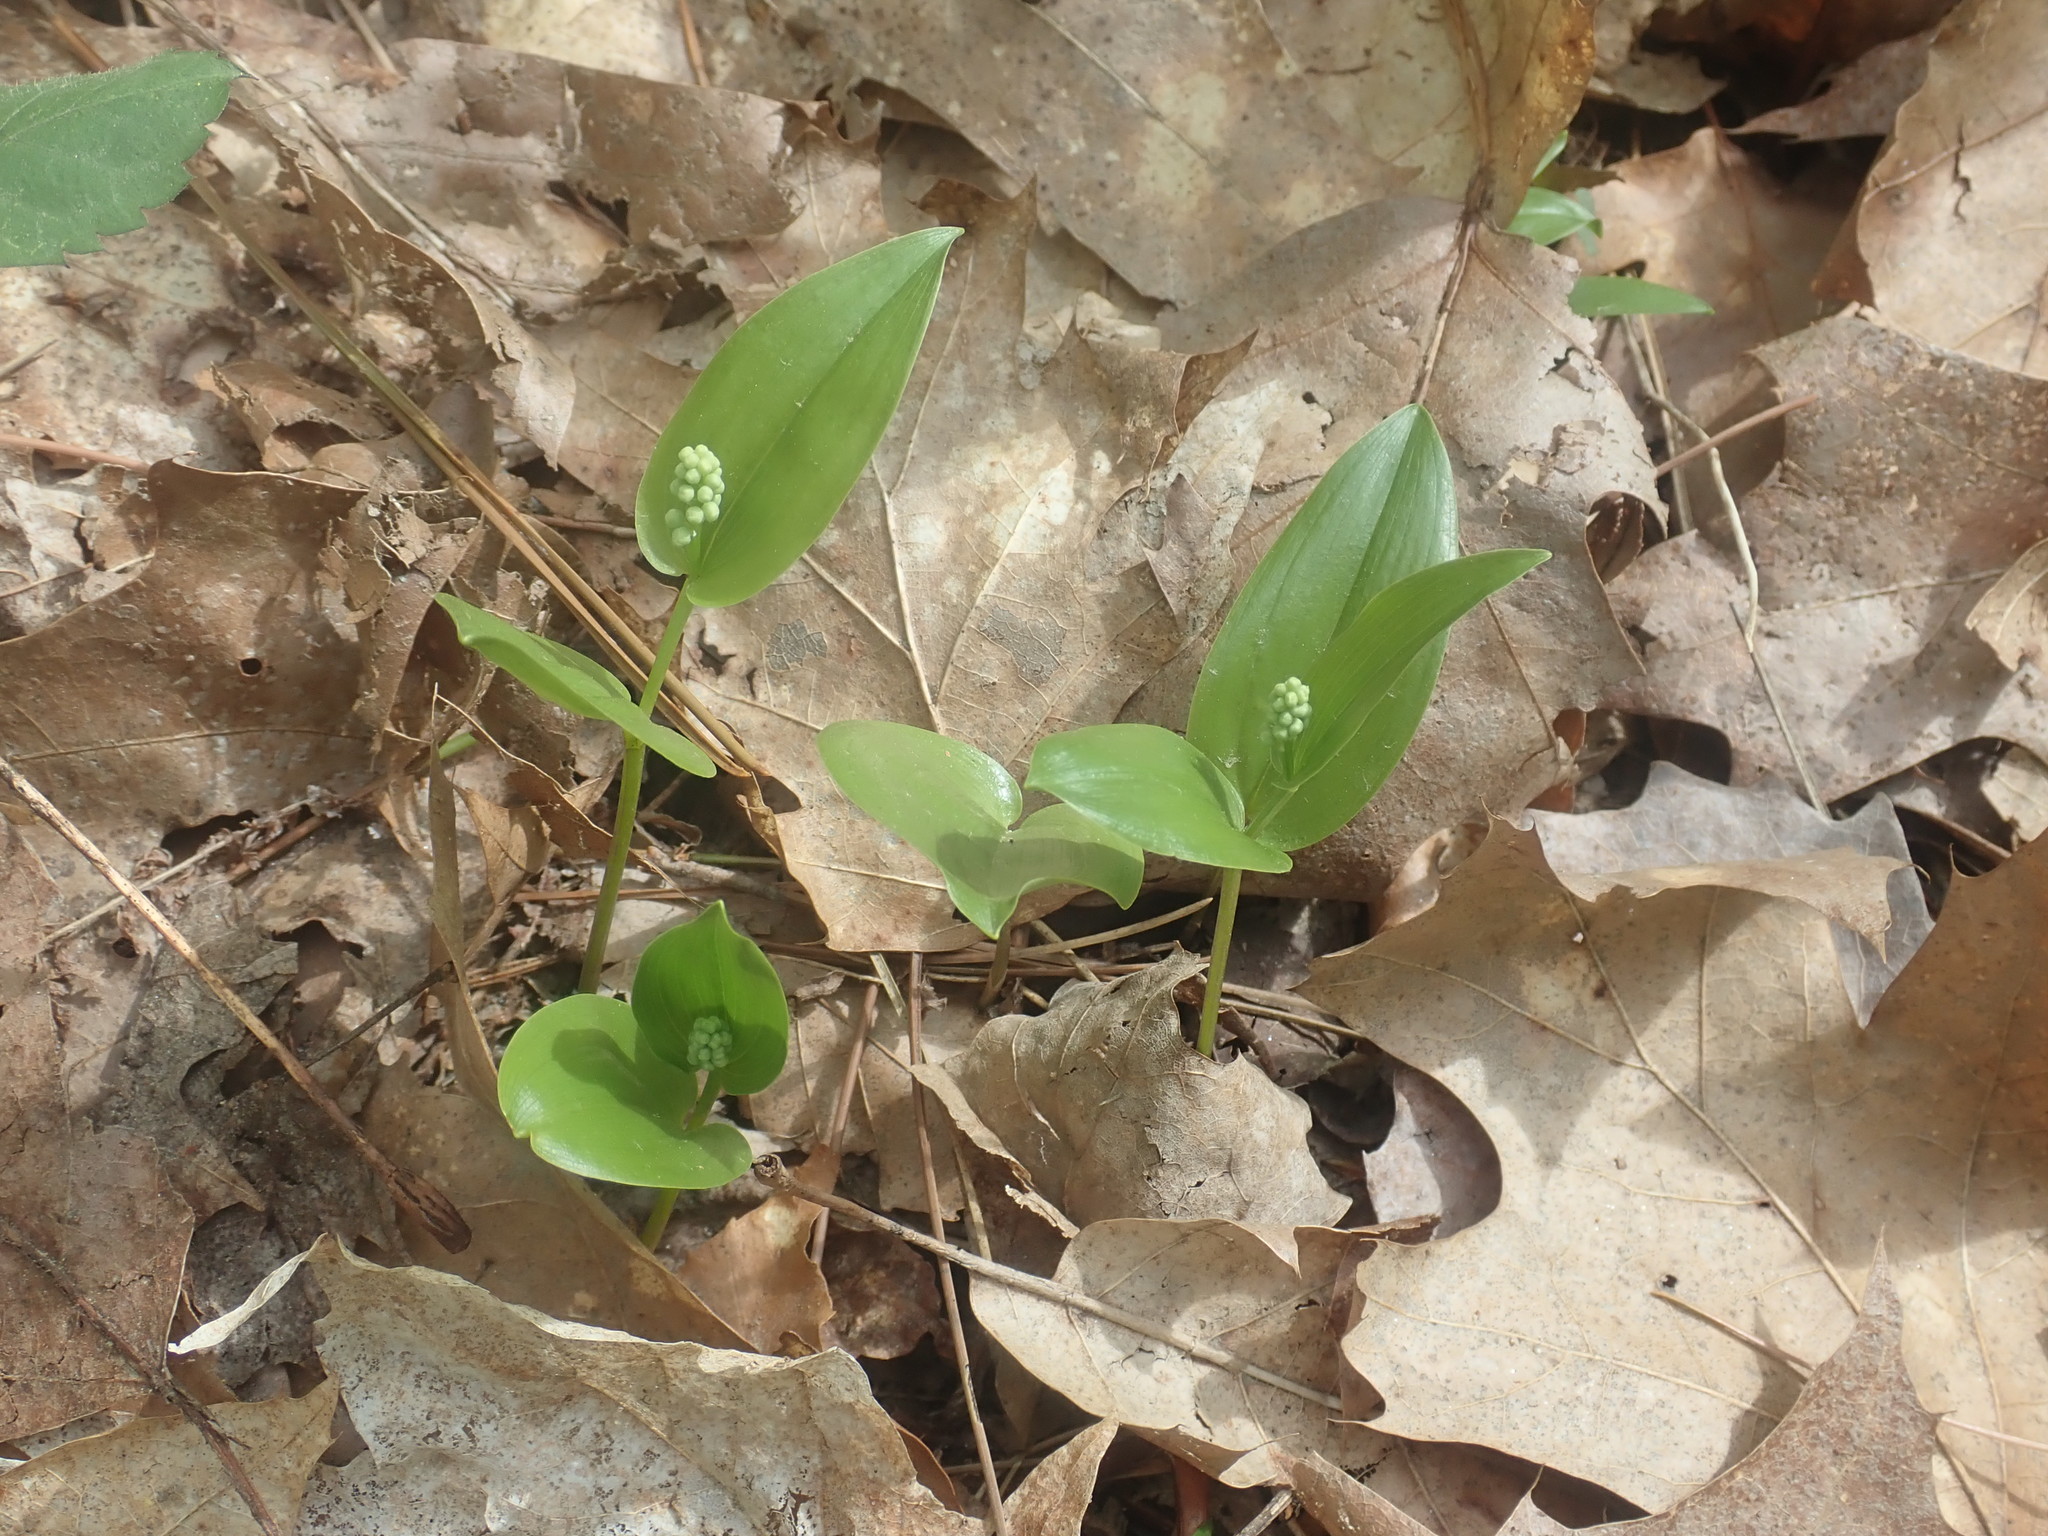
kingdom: Plantae
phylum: Tracheophyta
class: Liliopsida
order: Asparagales
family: Asparagaceae
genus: Maianthemum
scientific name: Maianthemum canadense
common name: False lily-of-the-valley
